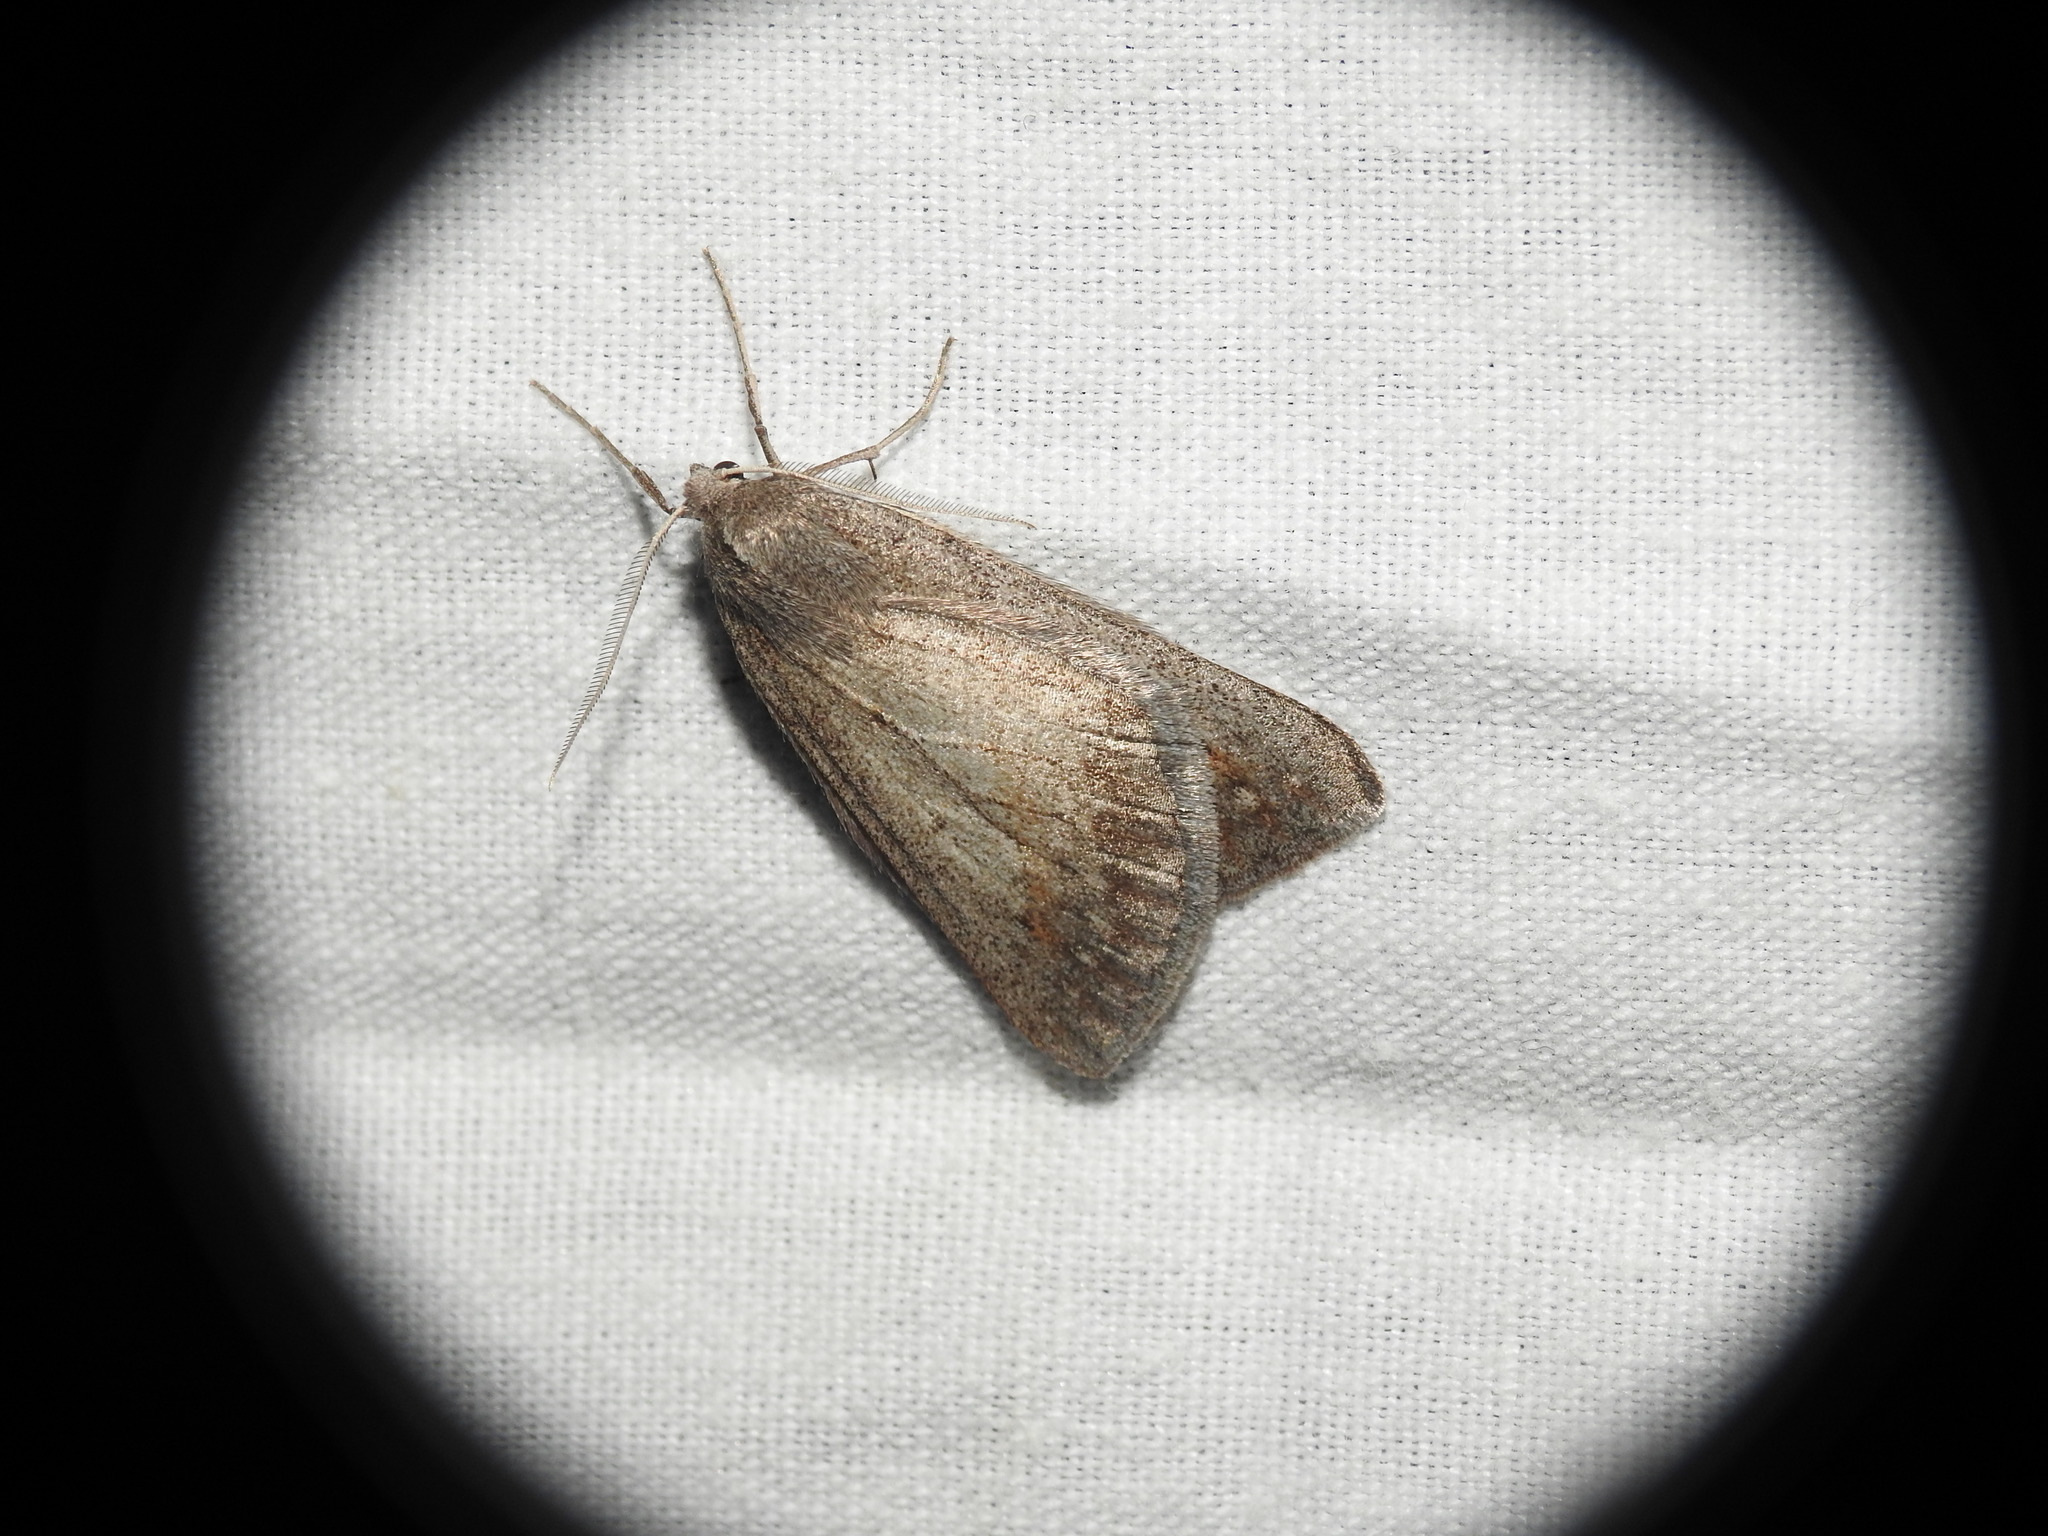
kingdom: Animalia
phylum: Arthropoda
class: Insecta
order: Lepidoptera
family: Geometridae
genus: Chemerina
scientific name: Chemerina caliginearia
